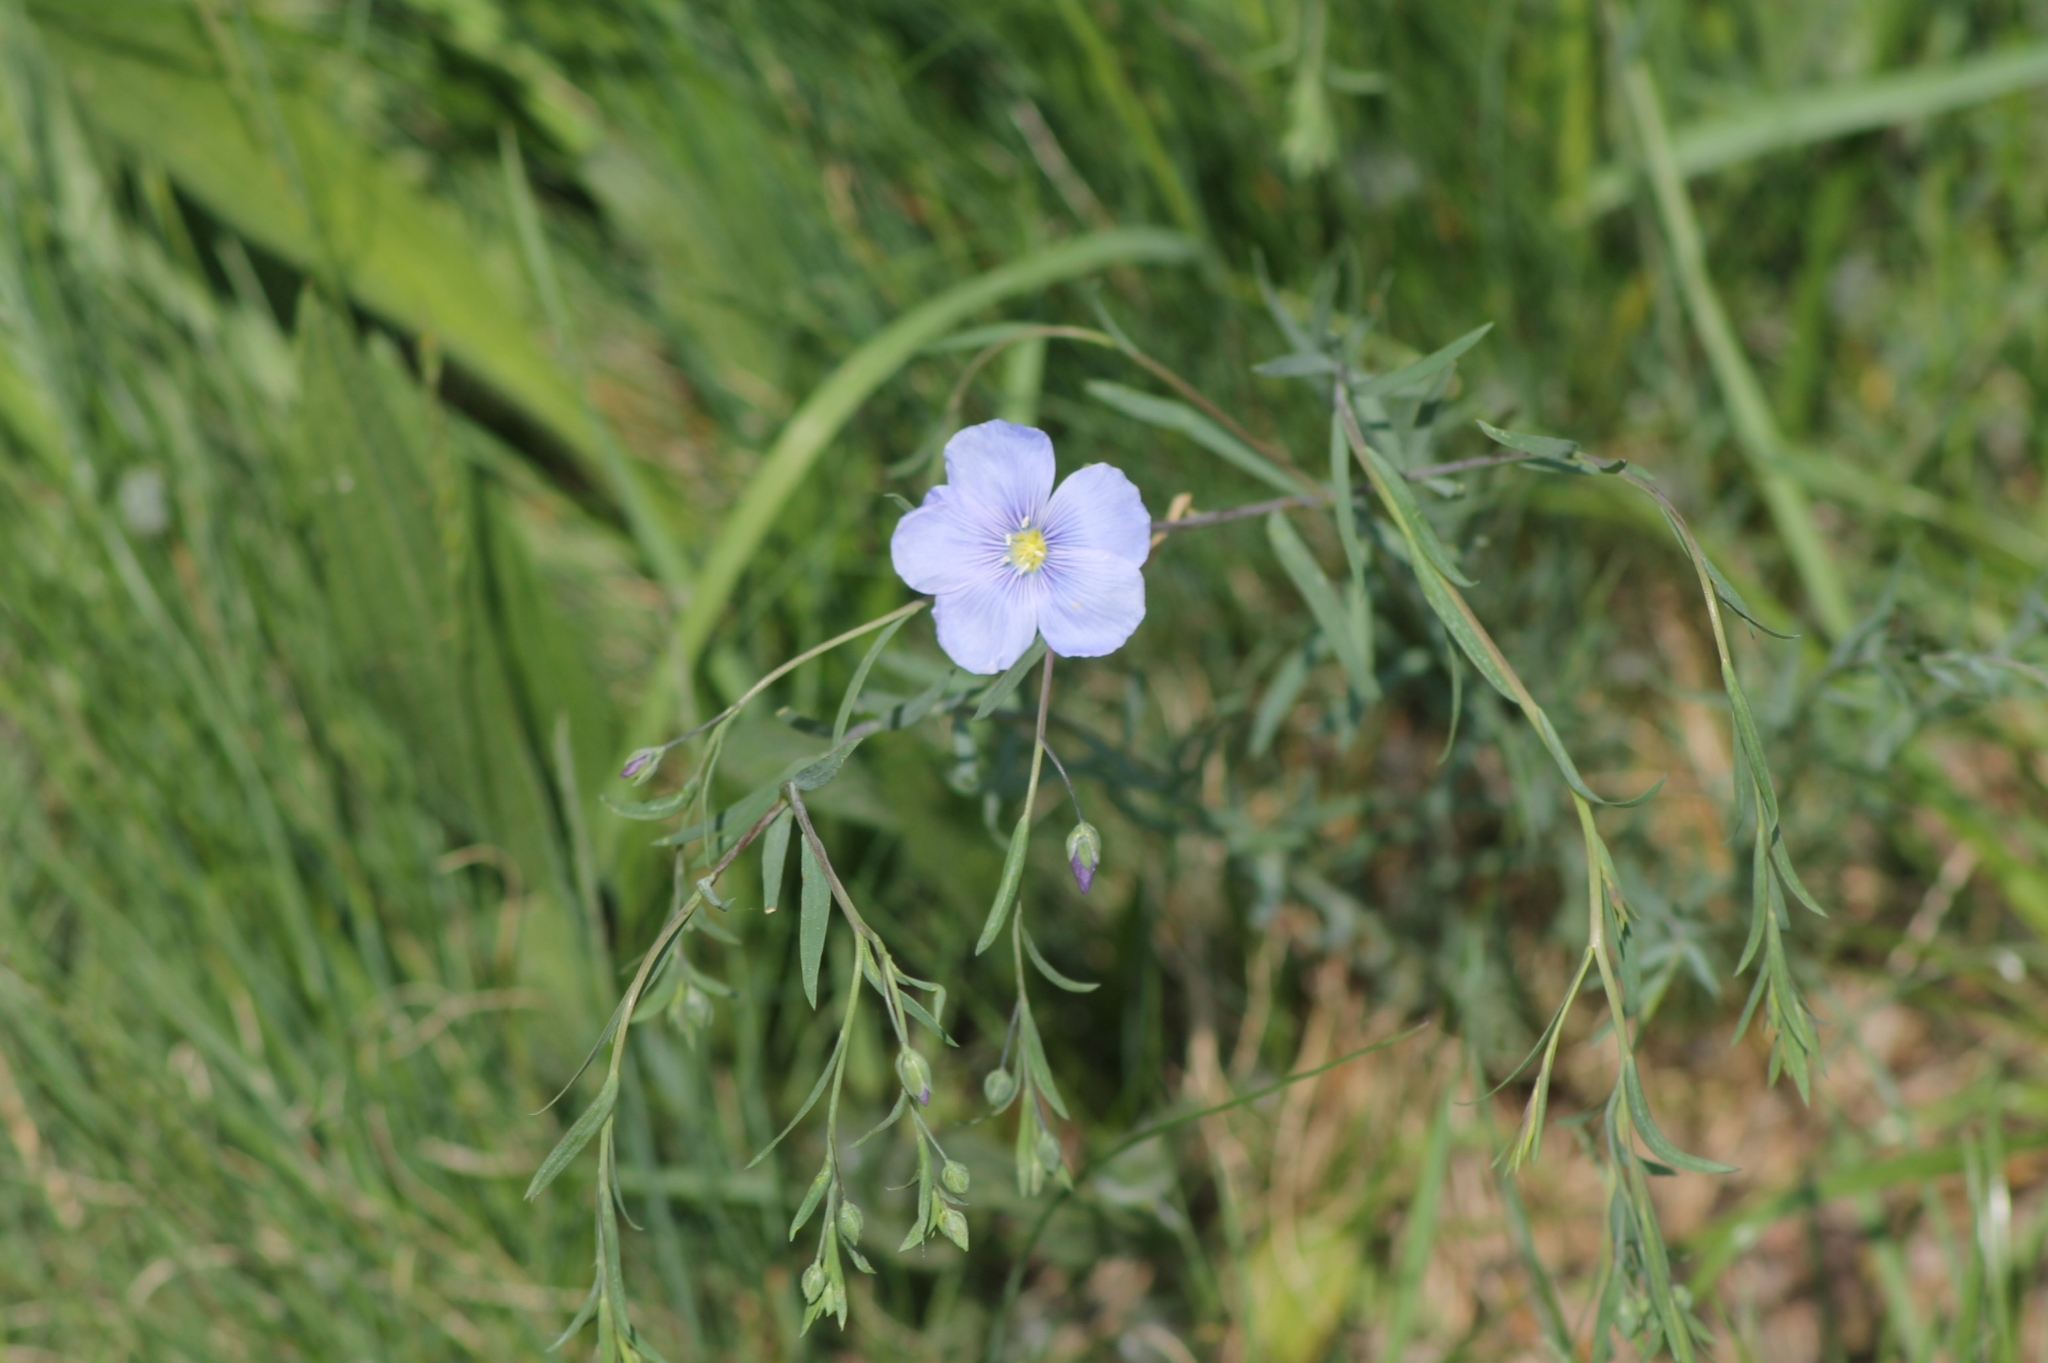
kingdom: Plantae
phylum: Tracheophyta
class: Magnoliopsida
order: Malpighiales
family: Linaceae
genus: Linum
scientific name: Linum austriacum
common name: Austrian flax
